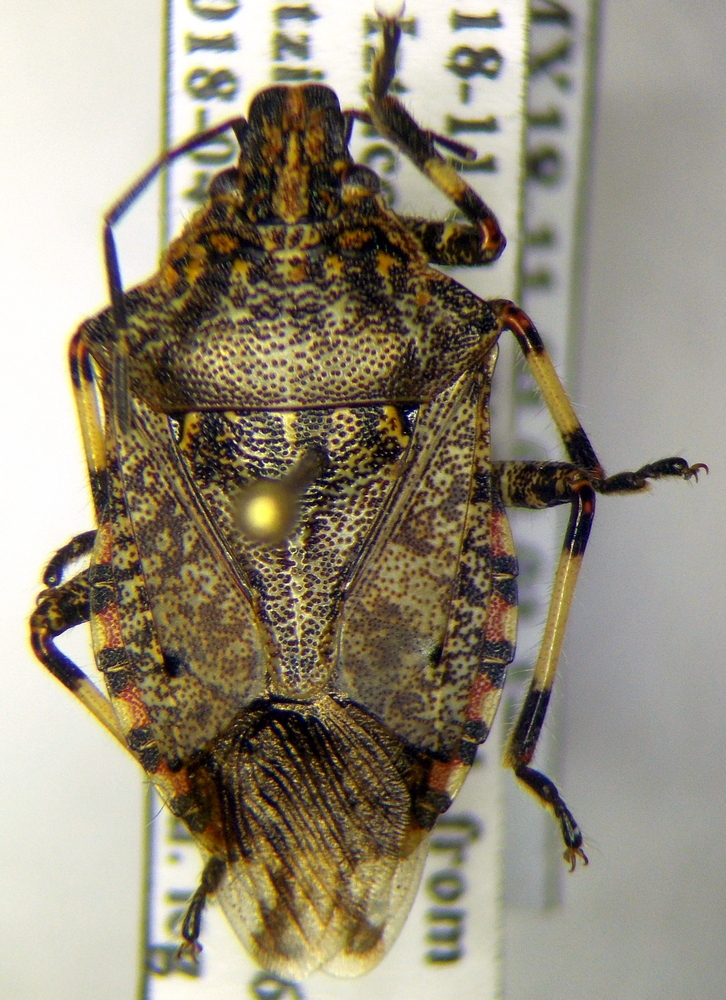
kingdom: Animalia
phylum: Arthropoda
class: Insecta
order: Hemiptera
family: Pentatomidae
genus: Apateticus
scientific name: Apateticus lineolatus
